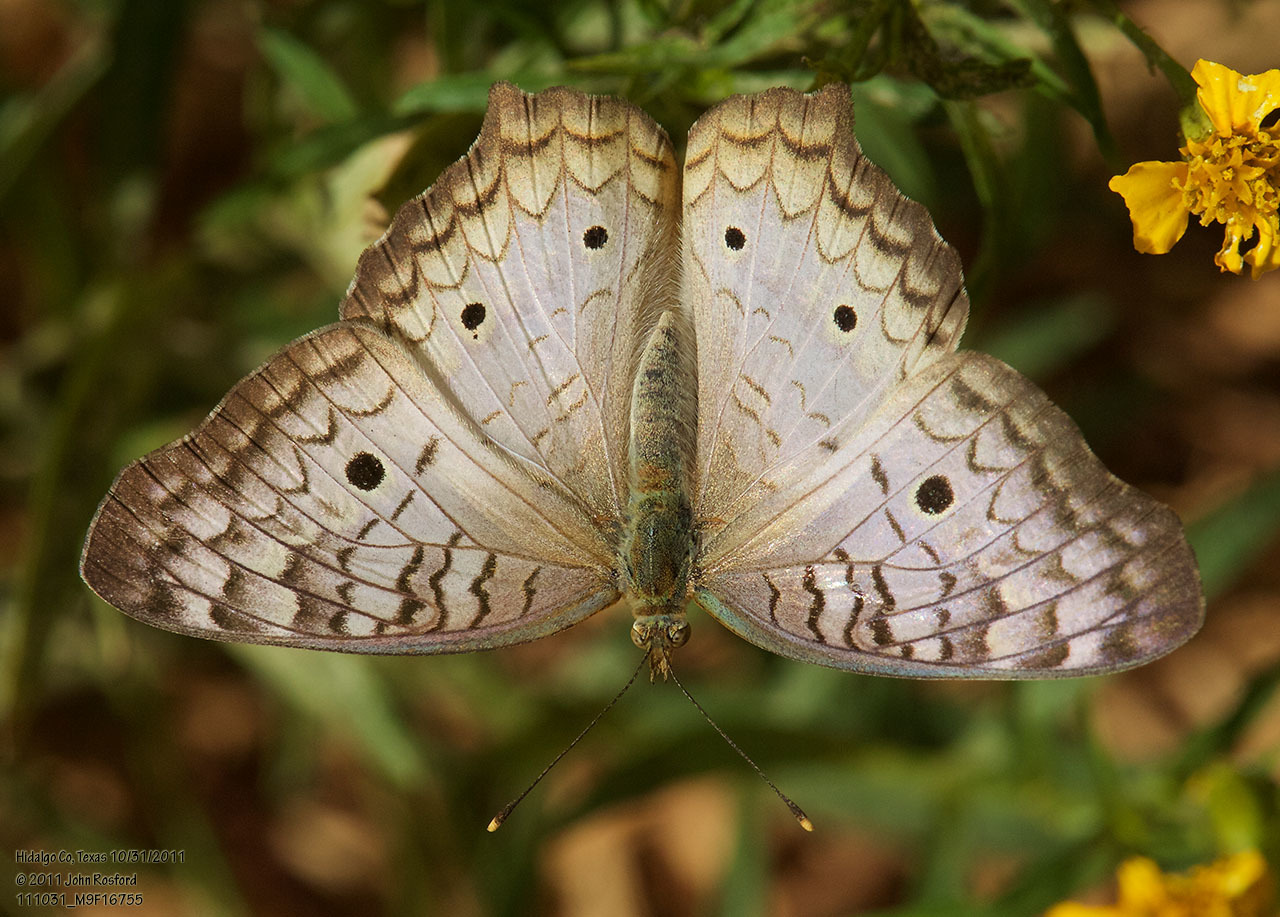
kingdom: Animalia
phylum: Arthropoda
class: Insecta
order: Lepidoptera
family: Nymphalidae
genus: Anartia
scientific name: Anartia jatrophae
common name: White peacock
